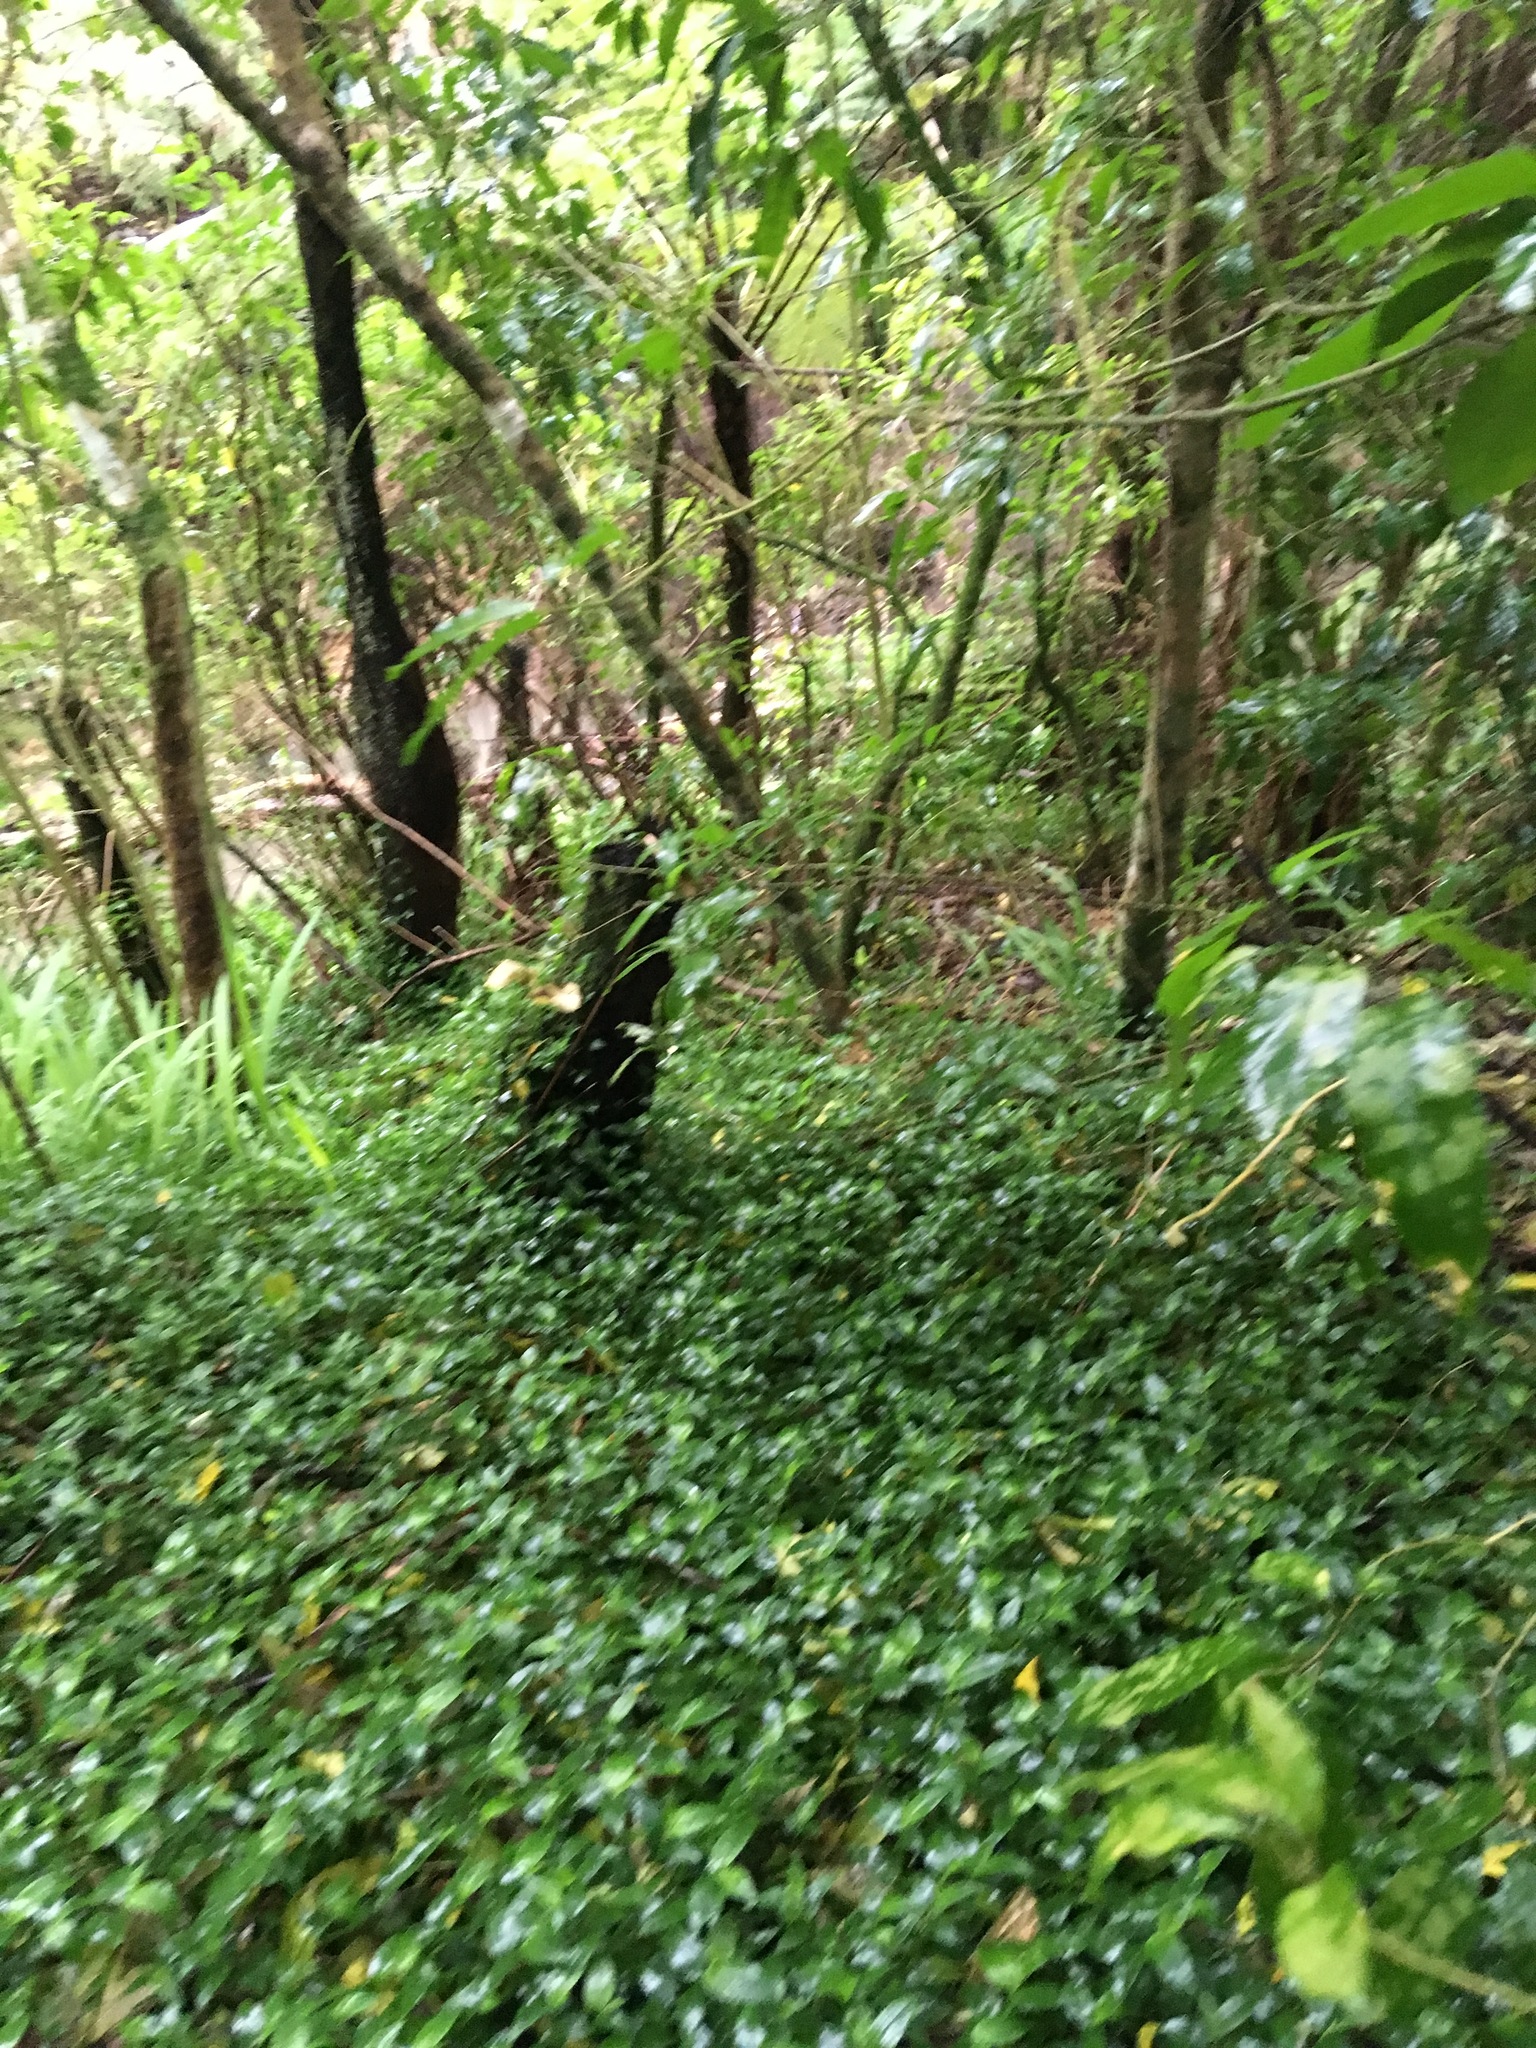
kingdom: Plantae
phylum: Tracheophyta
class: Liliopsida
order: Commelinales
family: Commelinaceae
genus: Tradescantia
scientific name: Tradescantia fluminensis
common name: Wandering-jew
